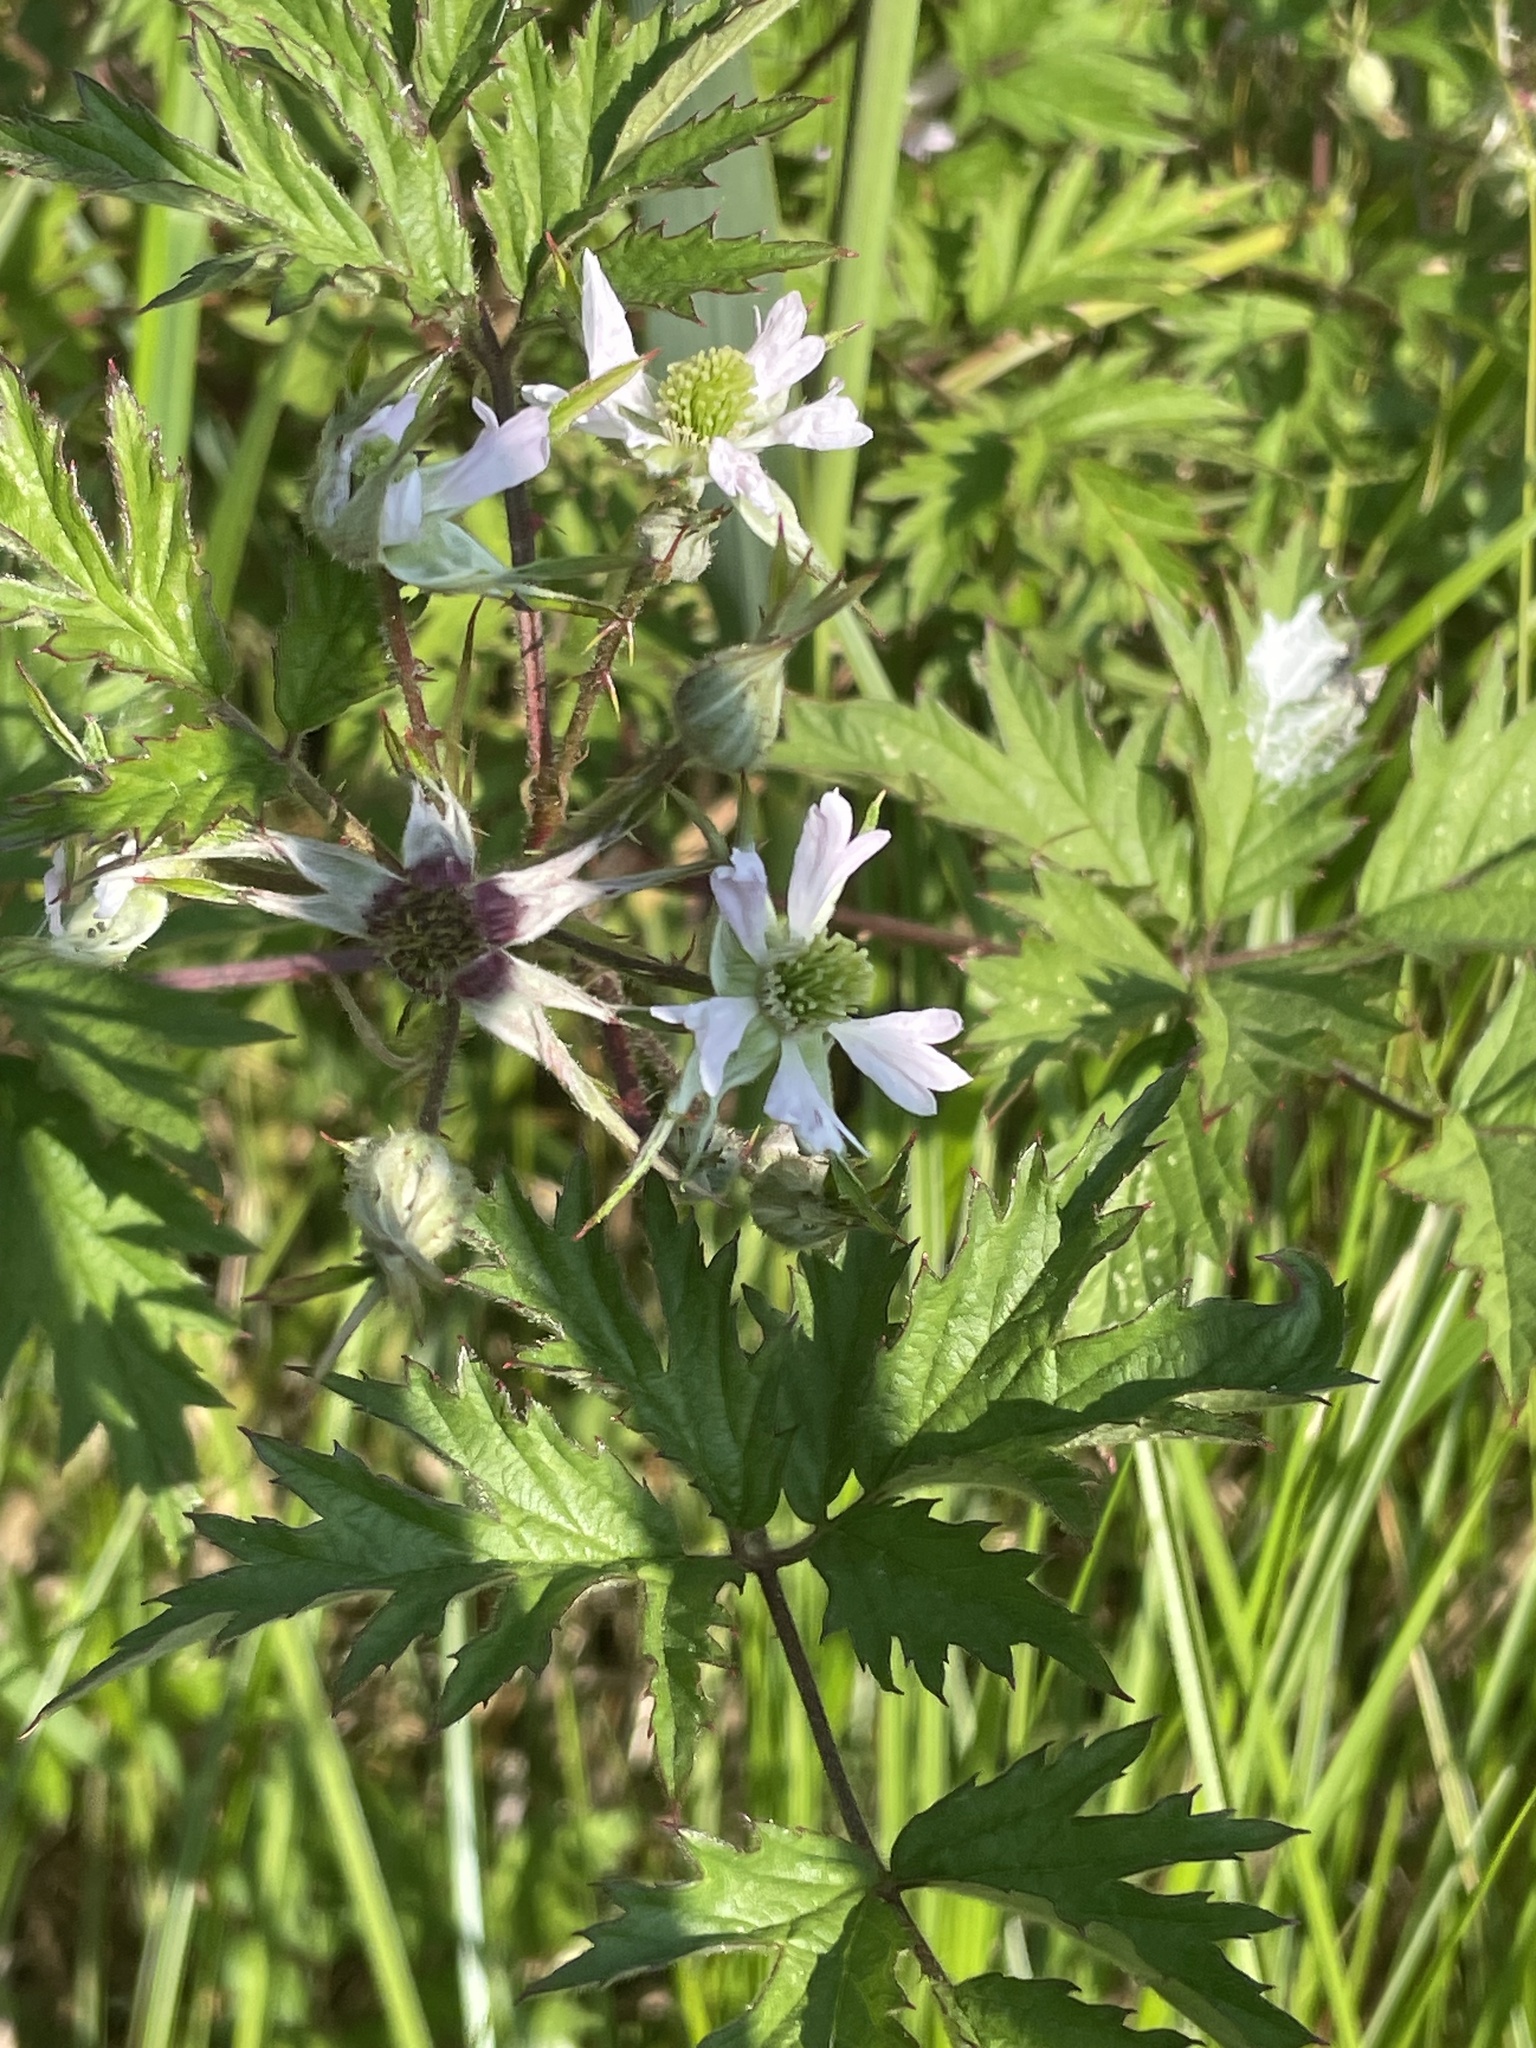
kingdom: Plantae
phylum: Tracheophyta
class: Magnoliopsida
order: Rosales
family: Rosaceae
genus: Rubus
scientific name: Rubus laciniatus
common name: Evergreen blackberry
